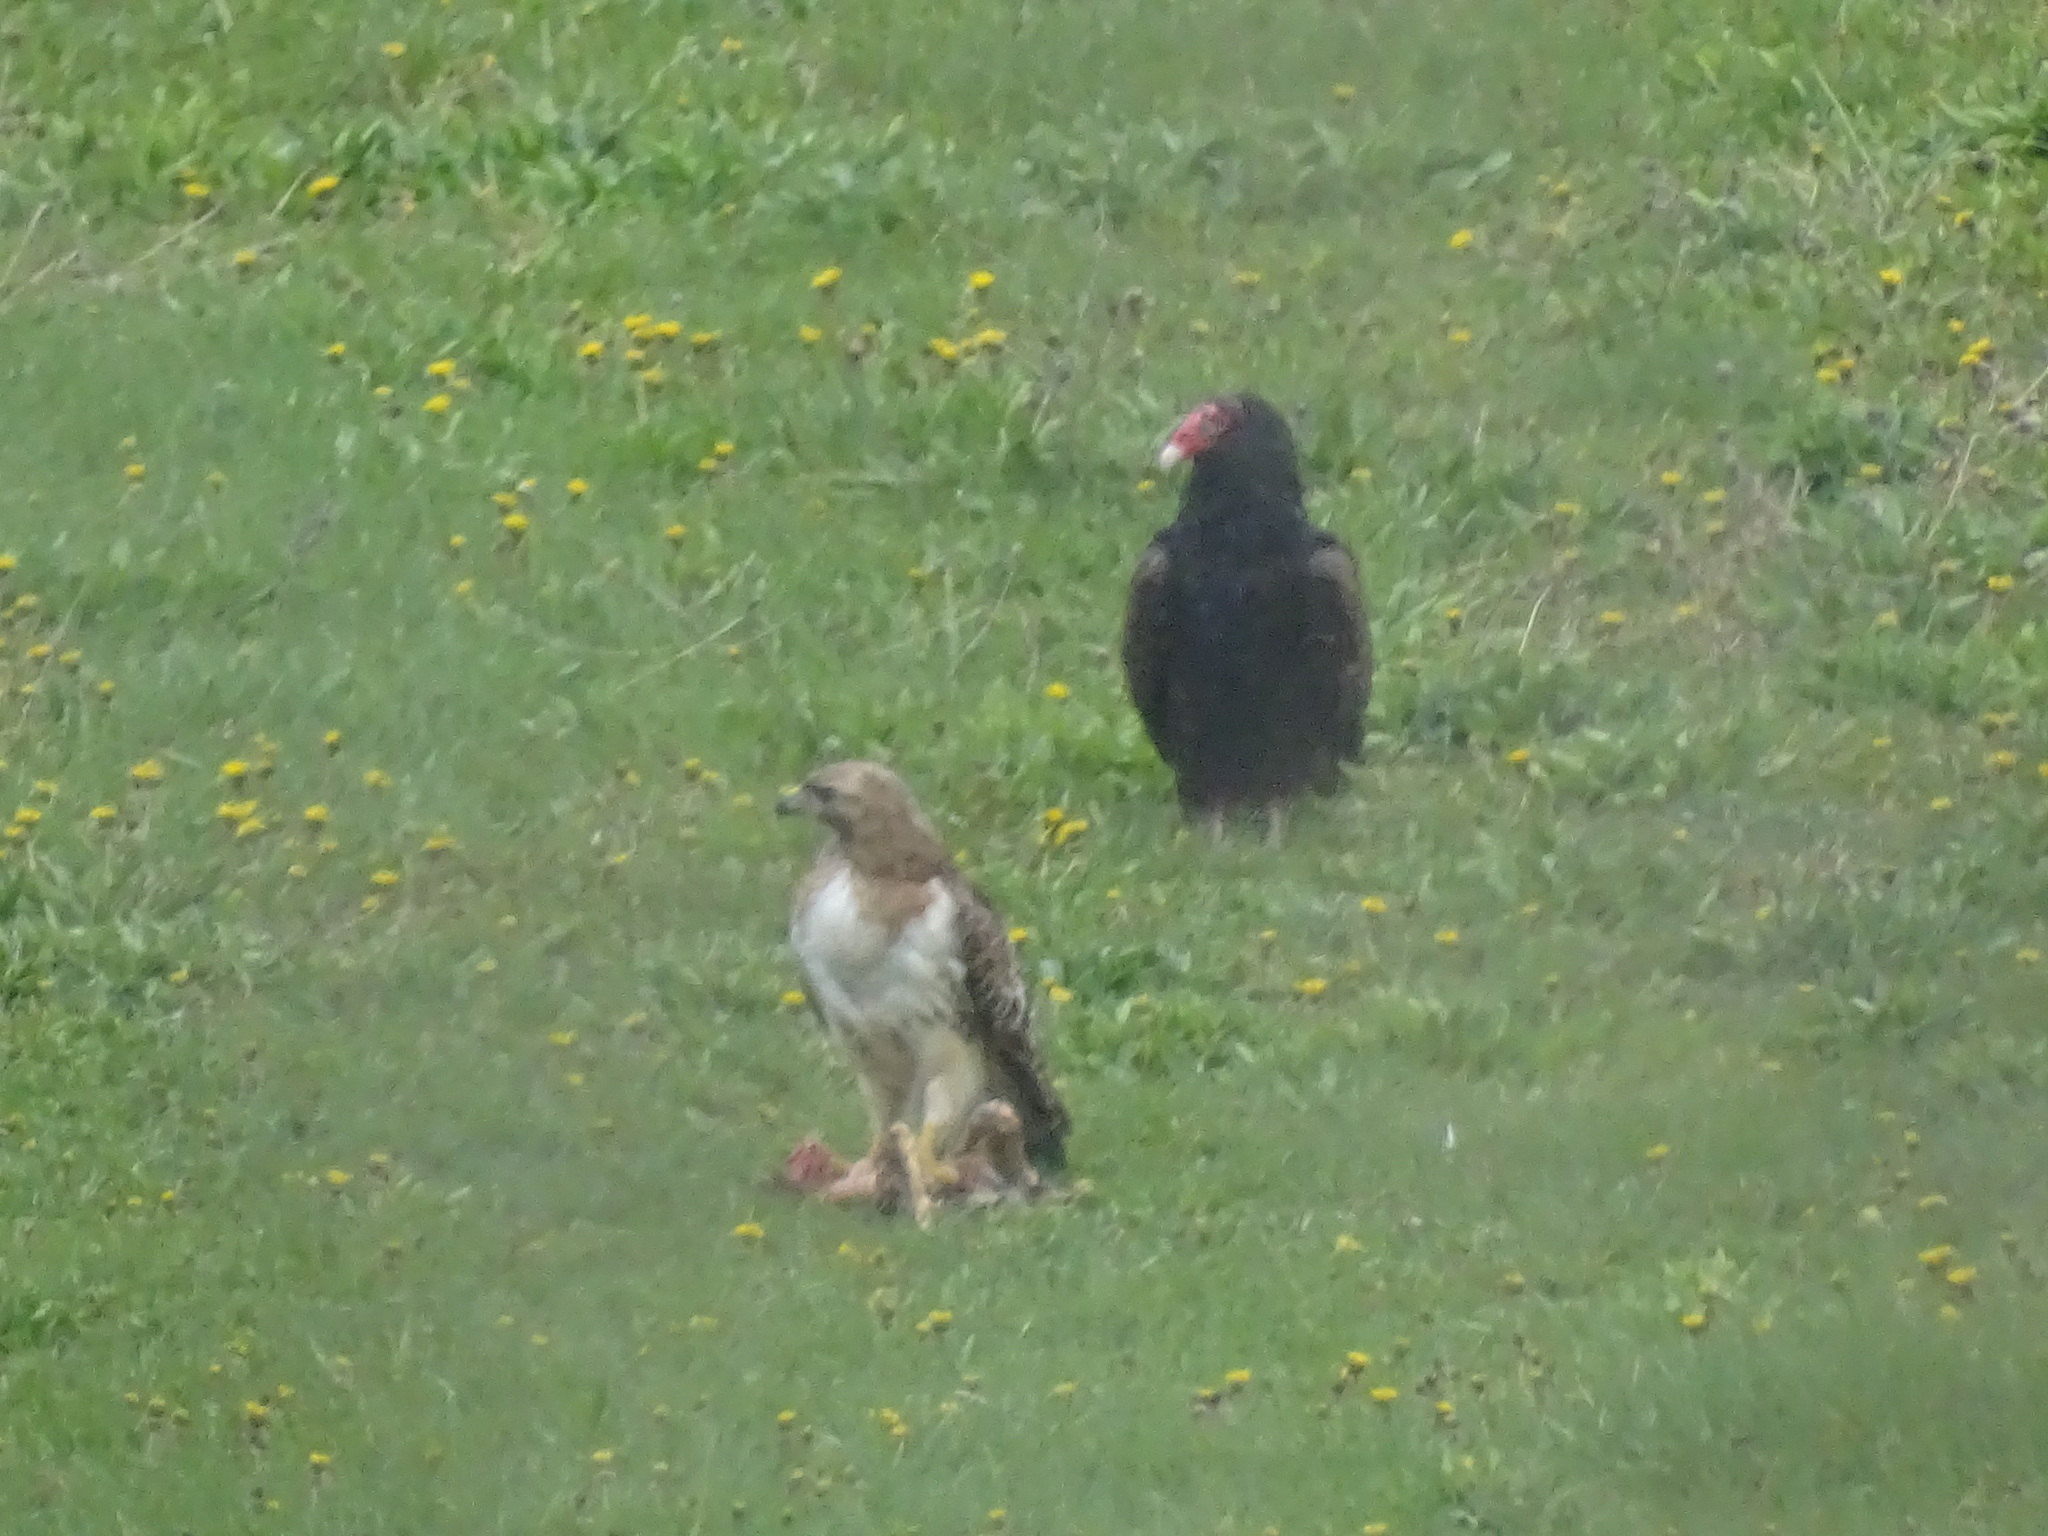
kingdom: Animalia
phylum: Chordata
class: Aves
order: Accipitriformes
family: Cathartidae
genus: Cathartes
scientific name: Cathartes aura
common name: Turkey vulture
